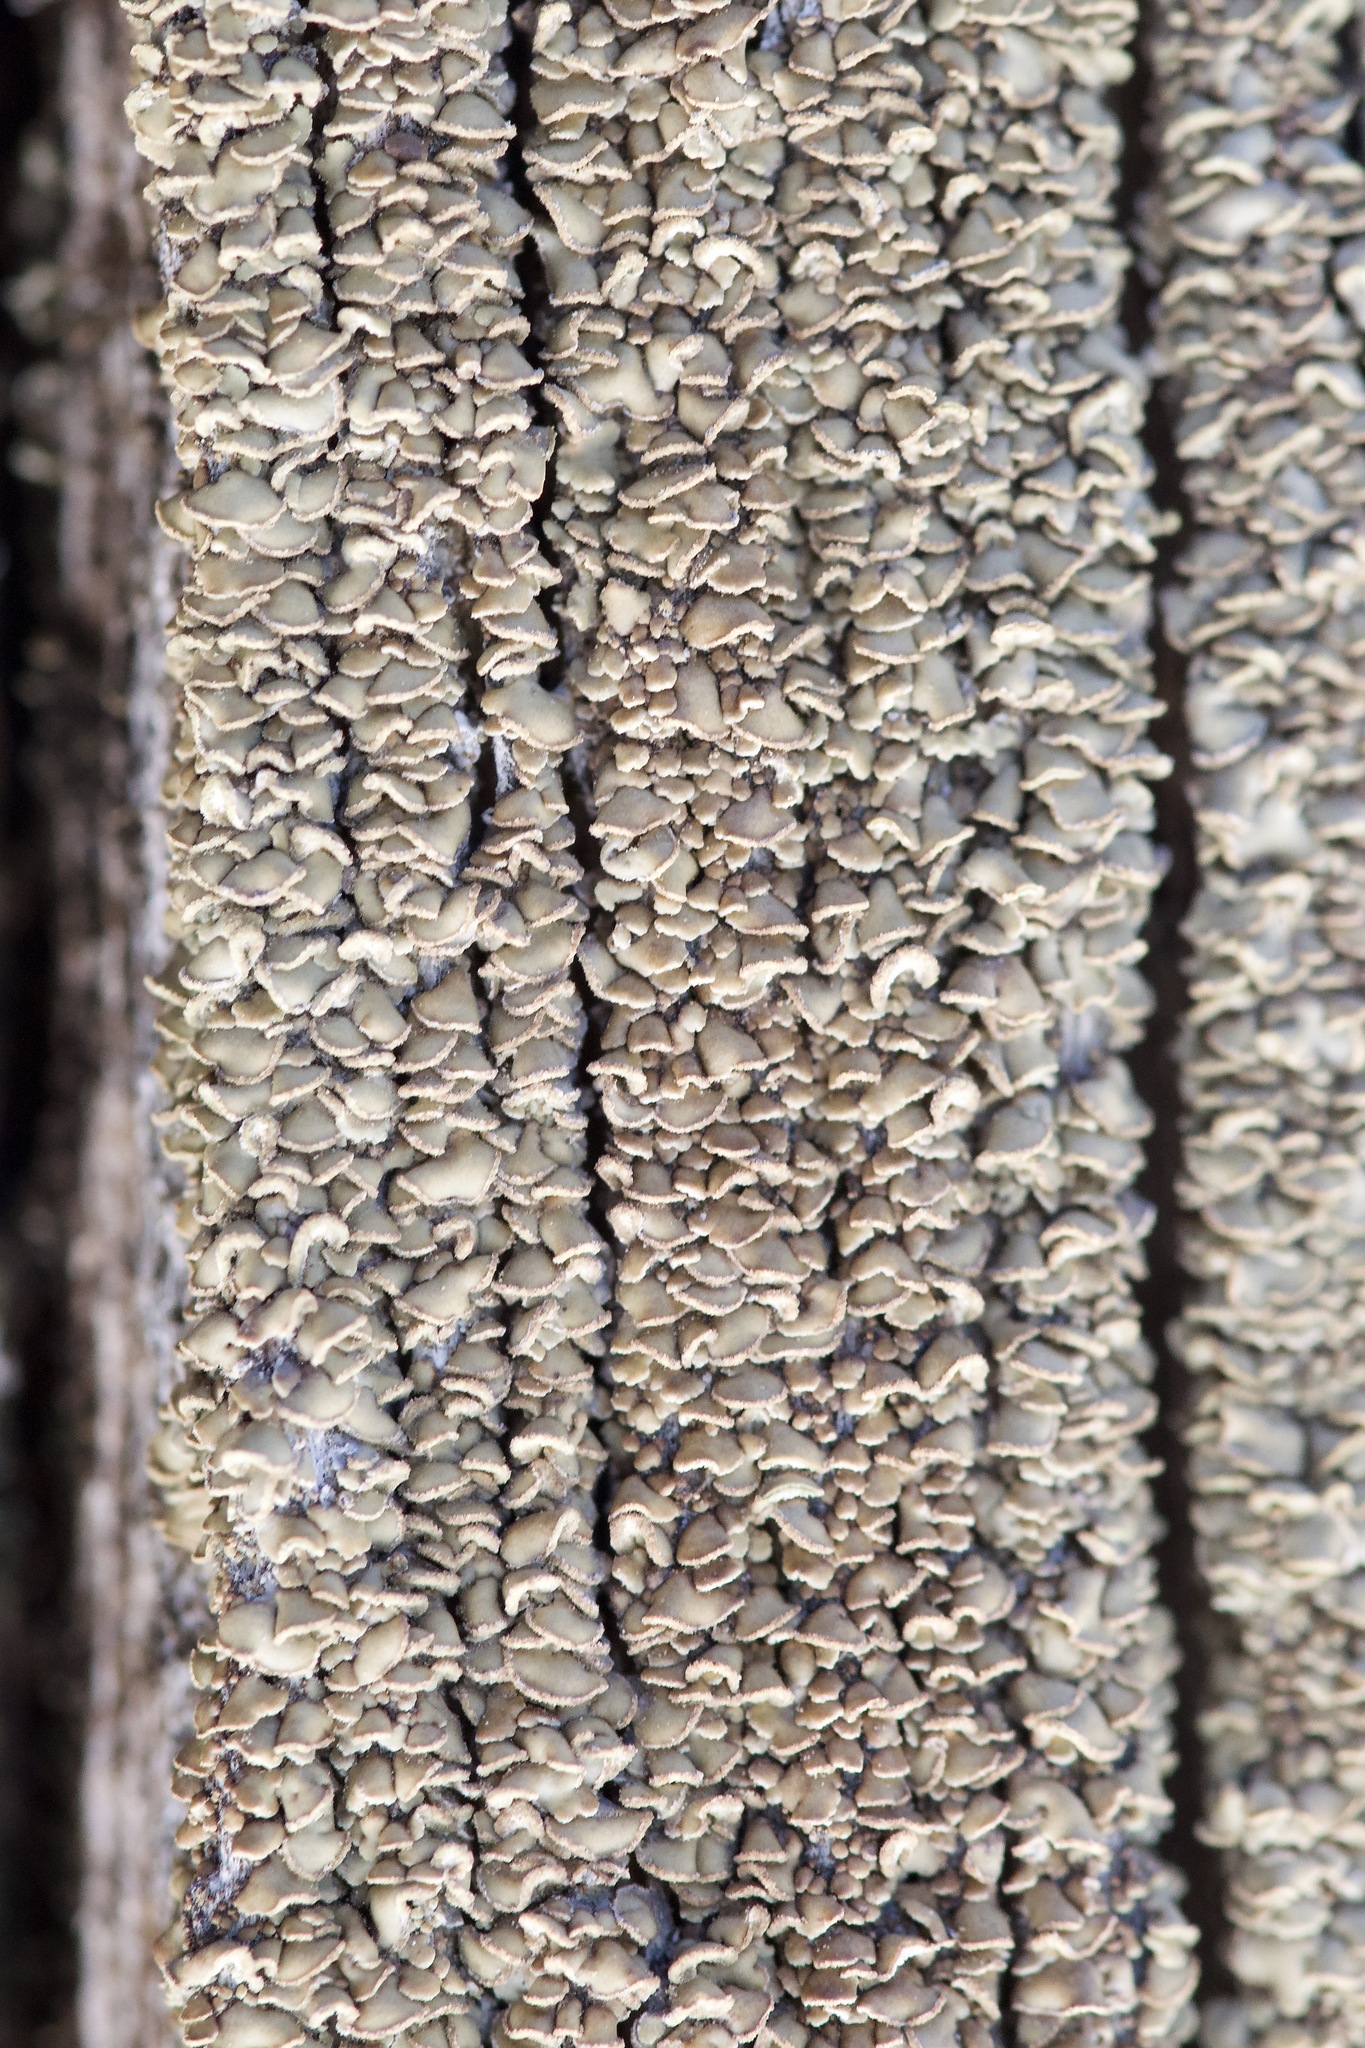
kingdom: Fungi
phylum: Ascomycota
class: Lecanoromycetes
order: Umbilicariales
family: Ophioparmaceae
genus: Hypocenomyce
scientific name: Hypocenomyce scalaris
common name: Common clam lichen
